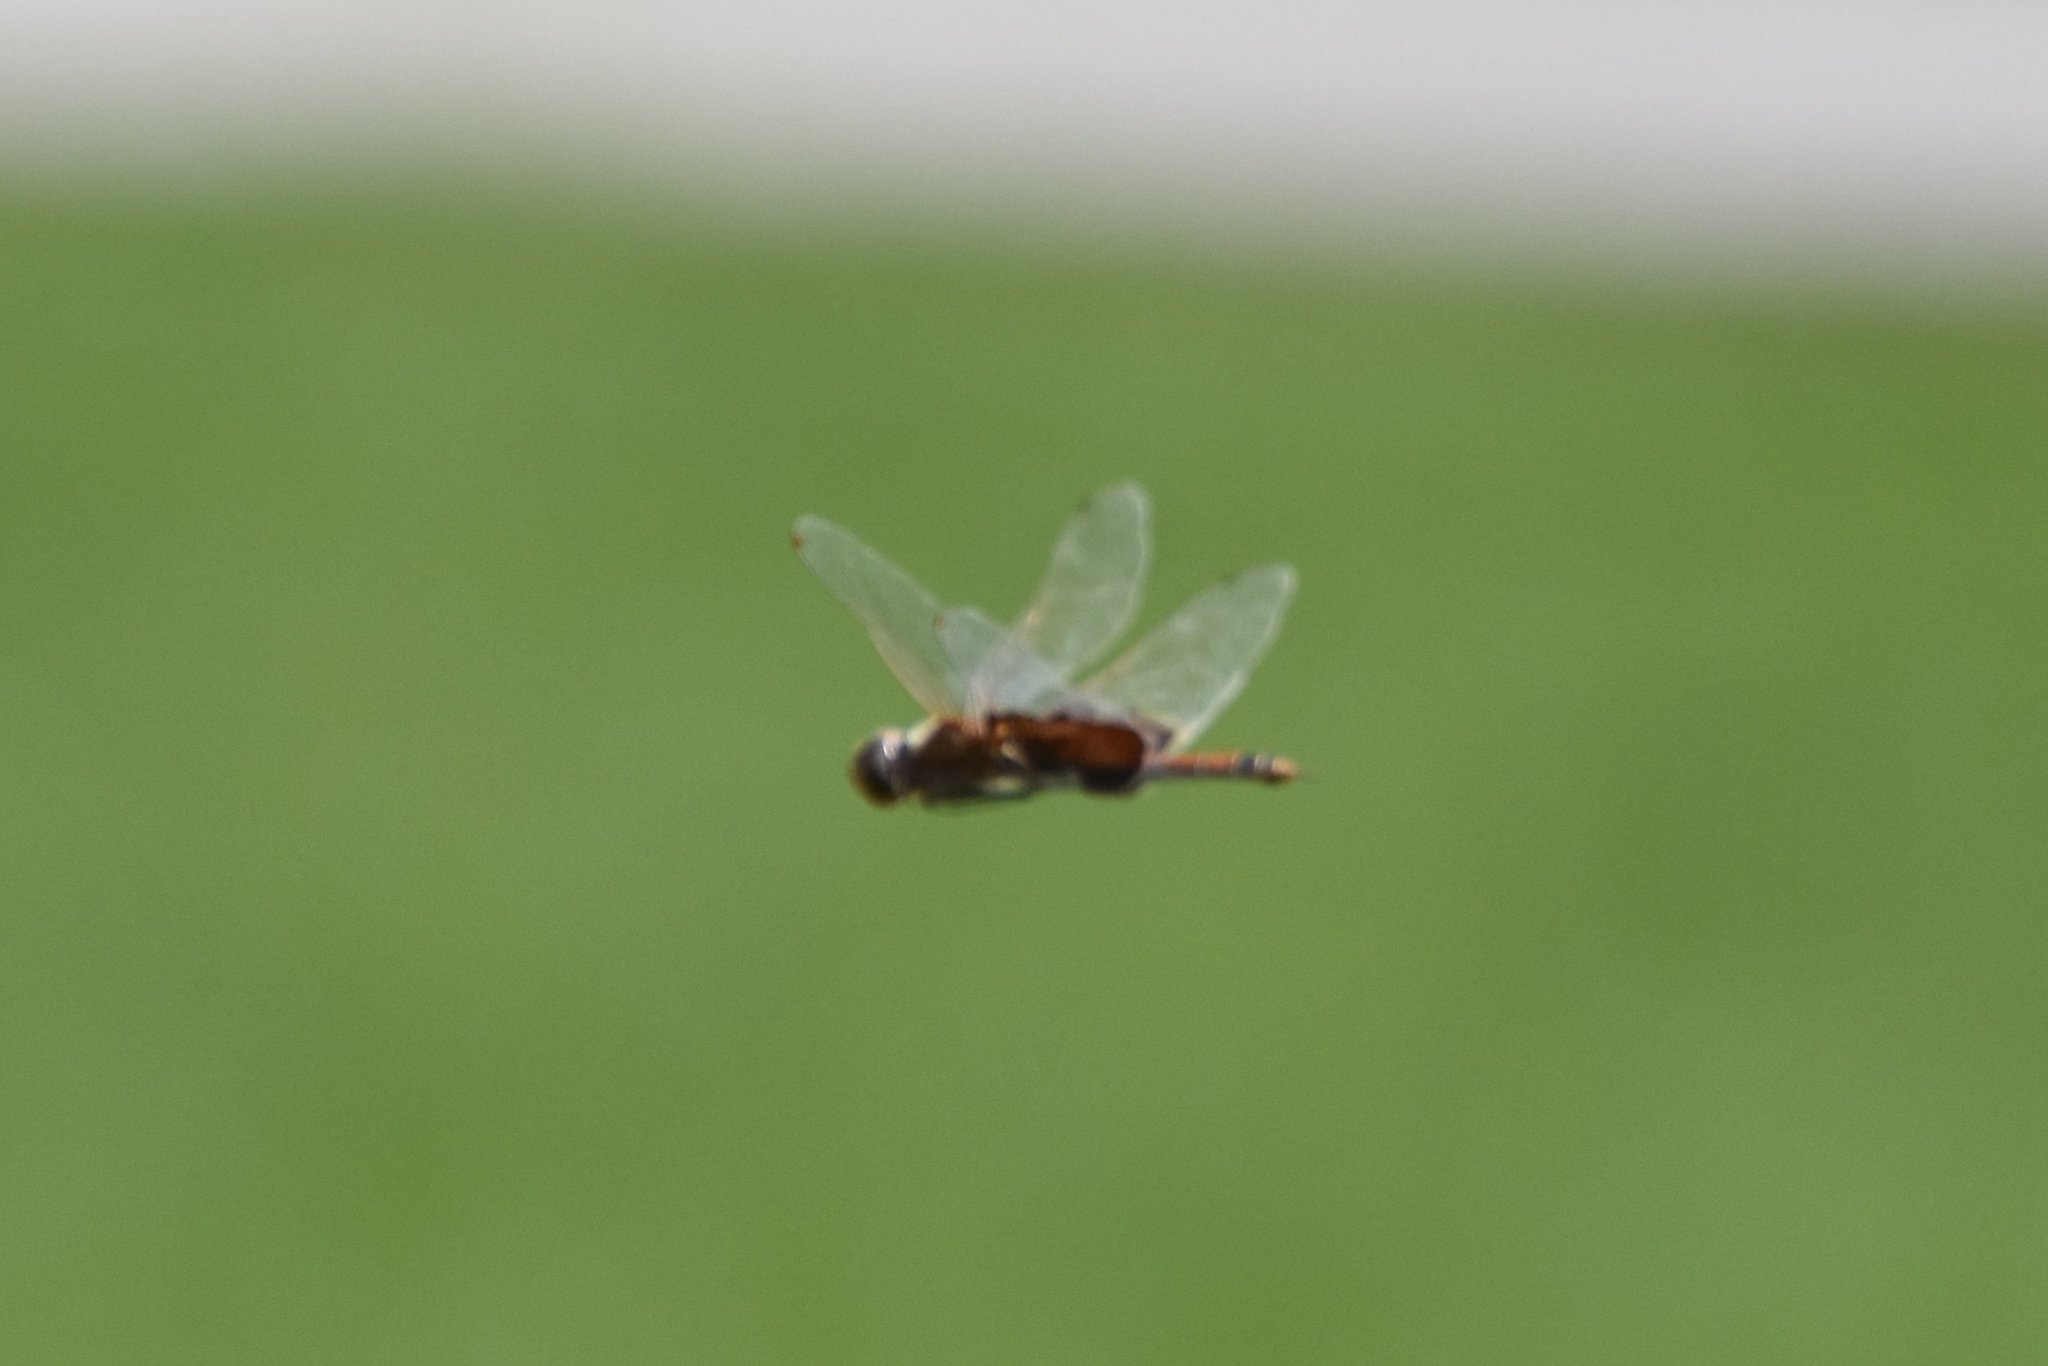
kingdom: Animalia
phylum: Arthropoda
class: Insecta
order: Odonata
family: Libellulidae
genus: Tramea
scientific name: Tramea carolina
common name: Carolina saddlebags
